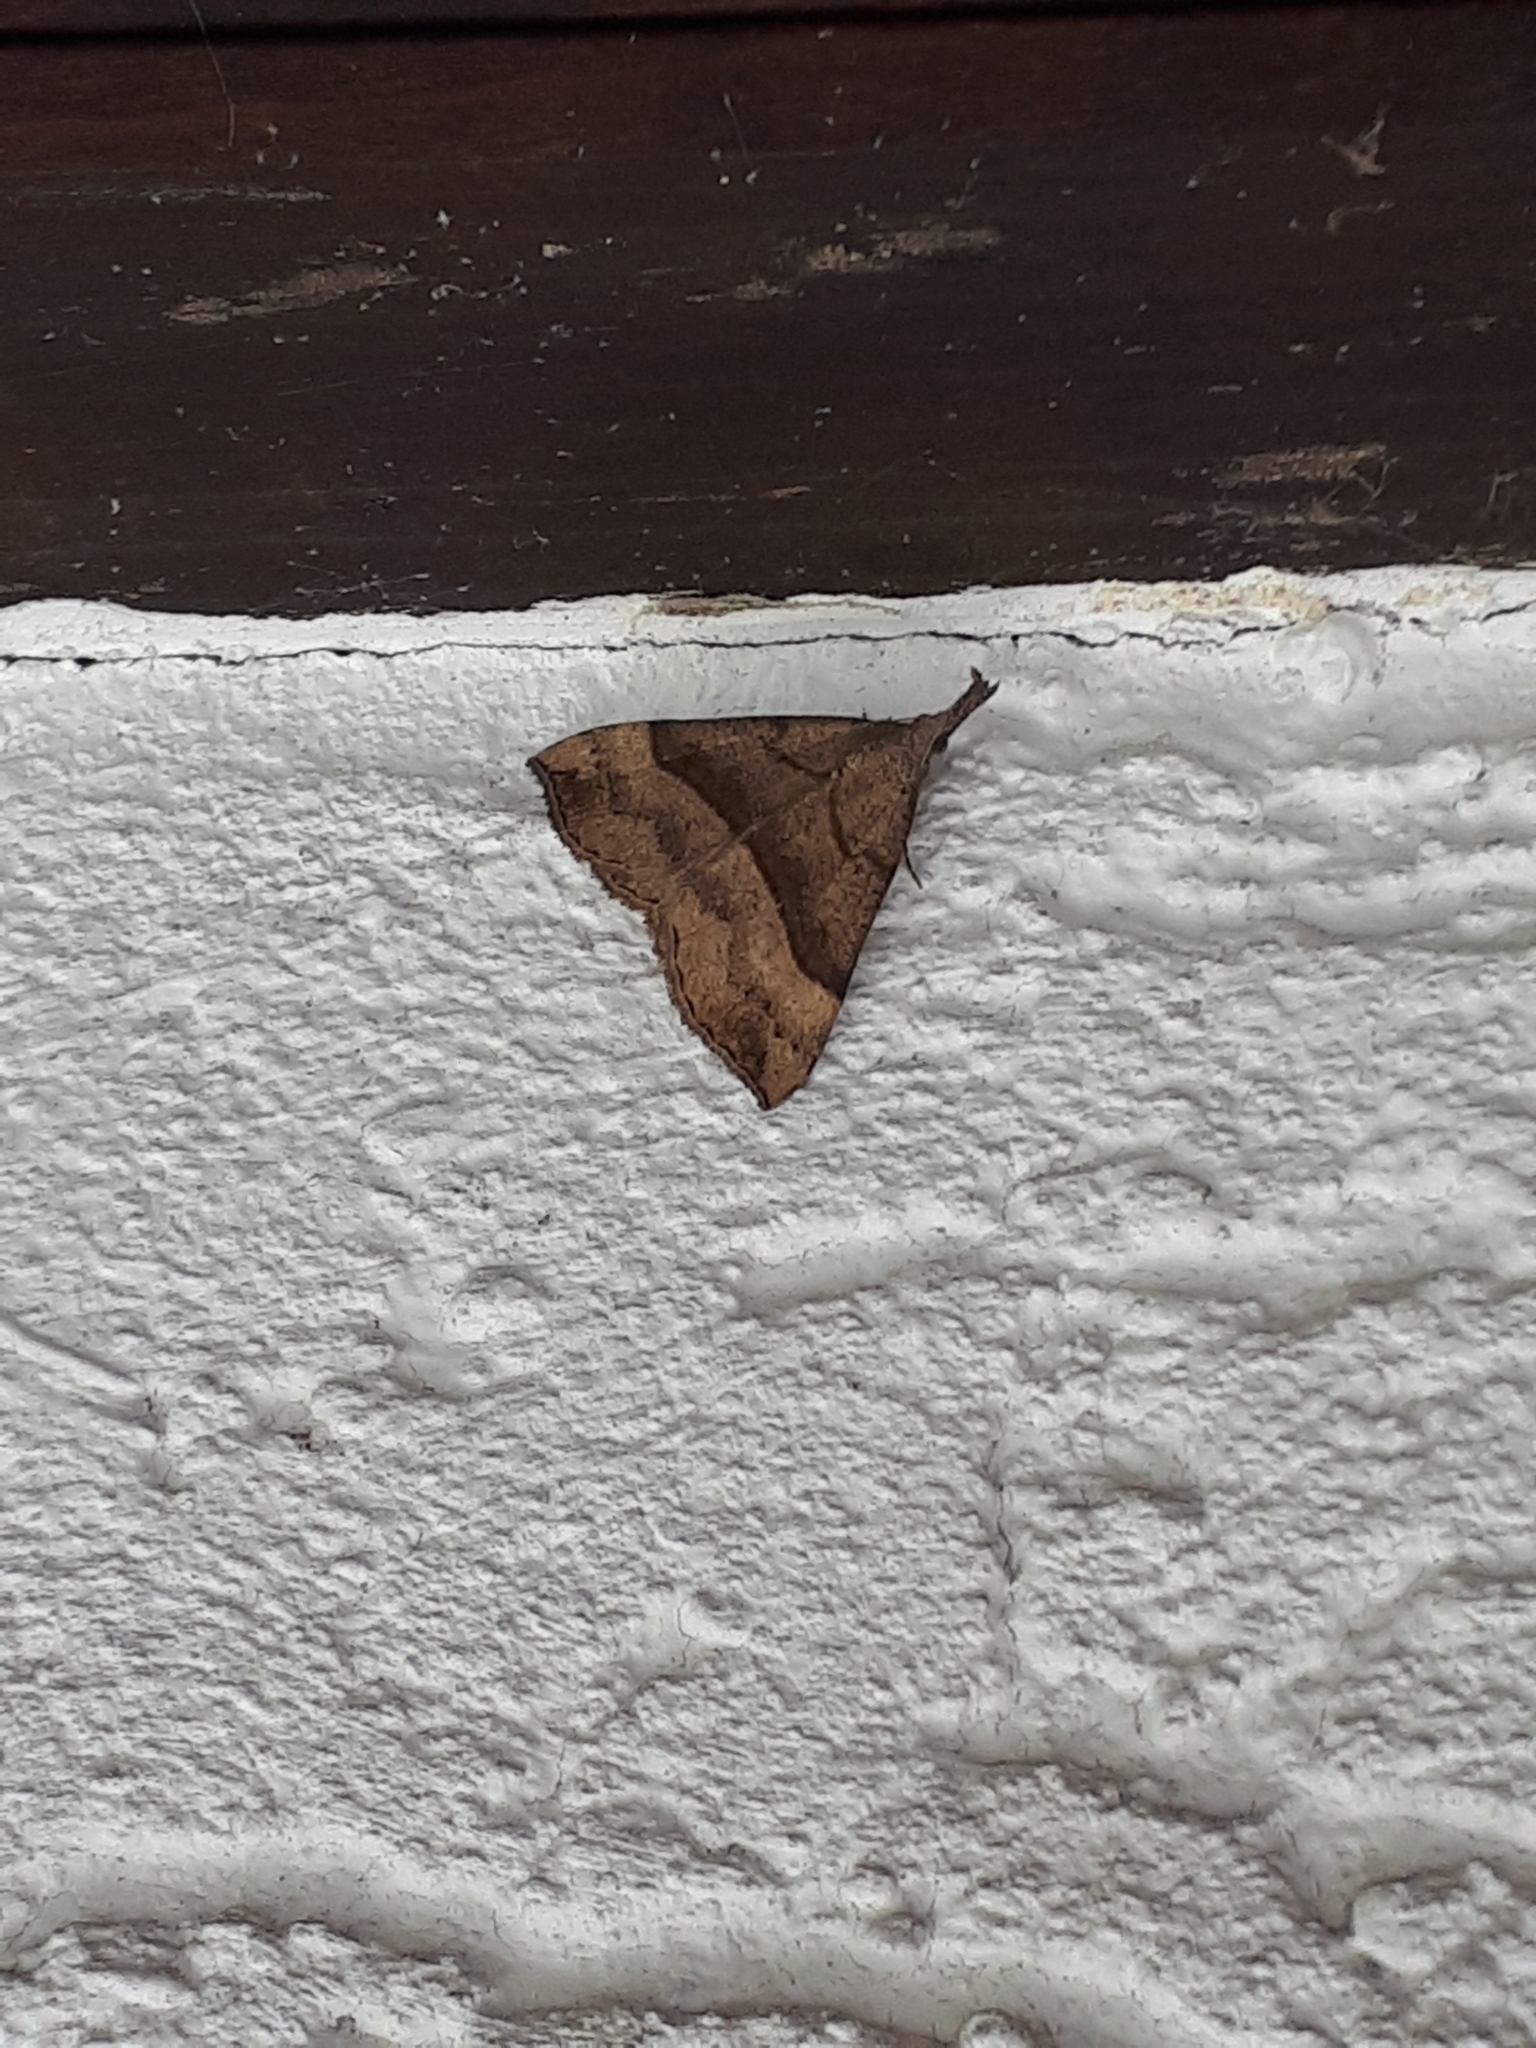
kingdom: Animalia
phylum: Arthropoda
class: Insecta
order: Lepidoptera
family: Erebidae
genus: Hypena
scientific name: Hypena proboscidalis
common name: Snout
